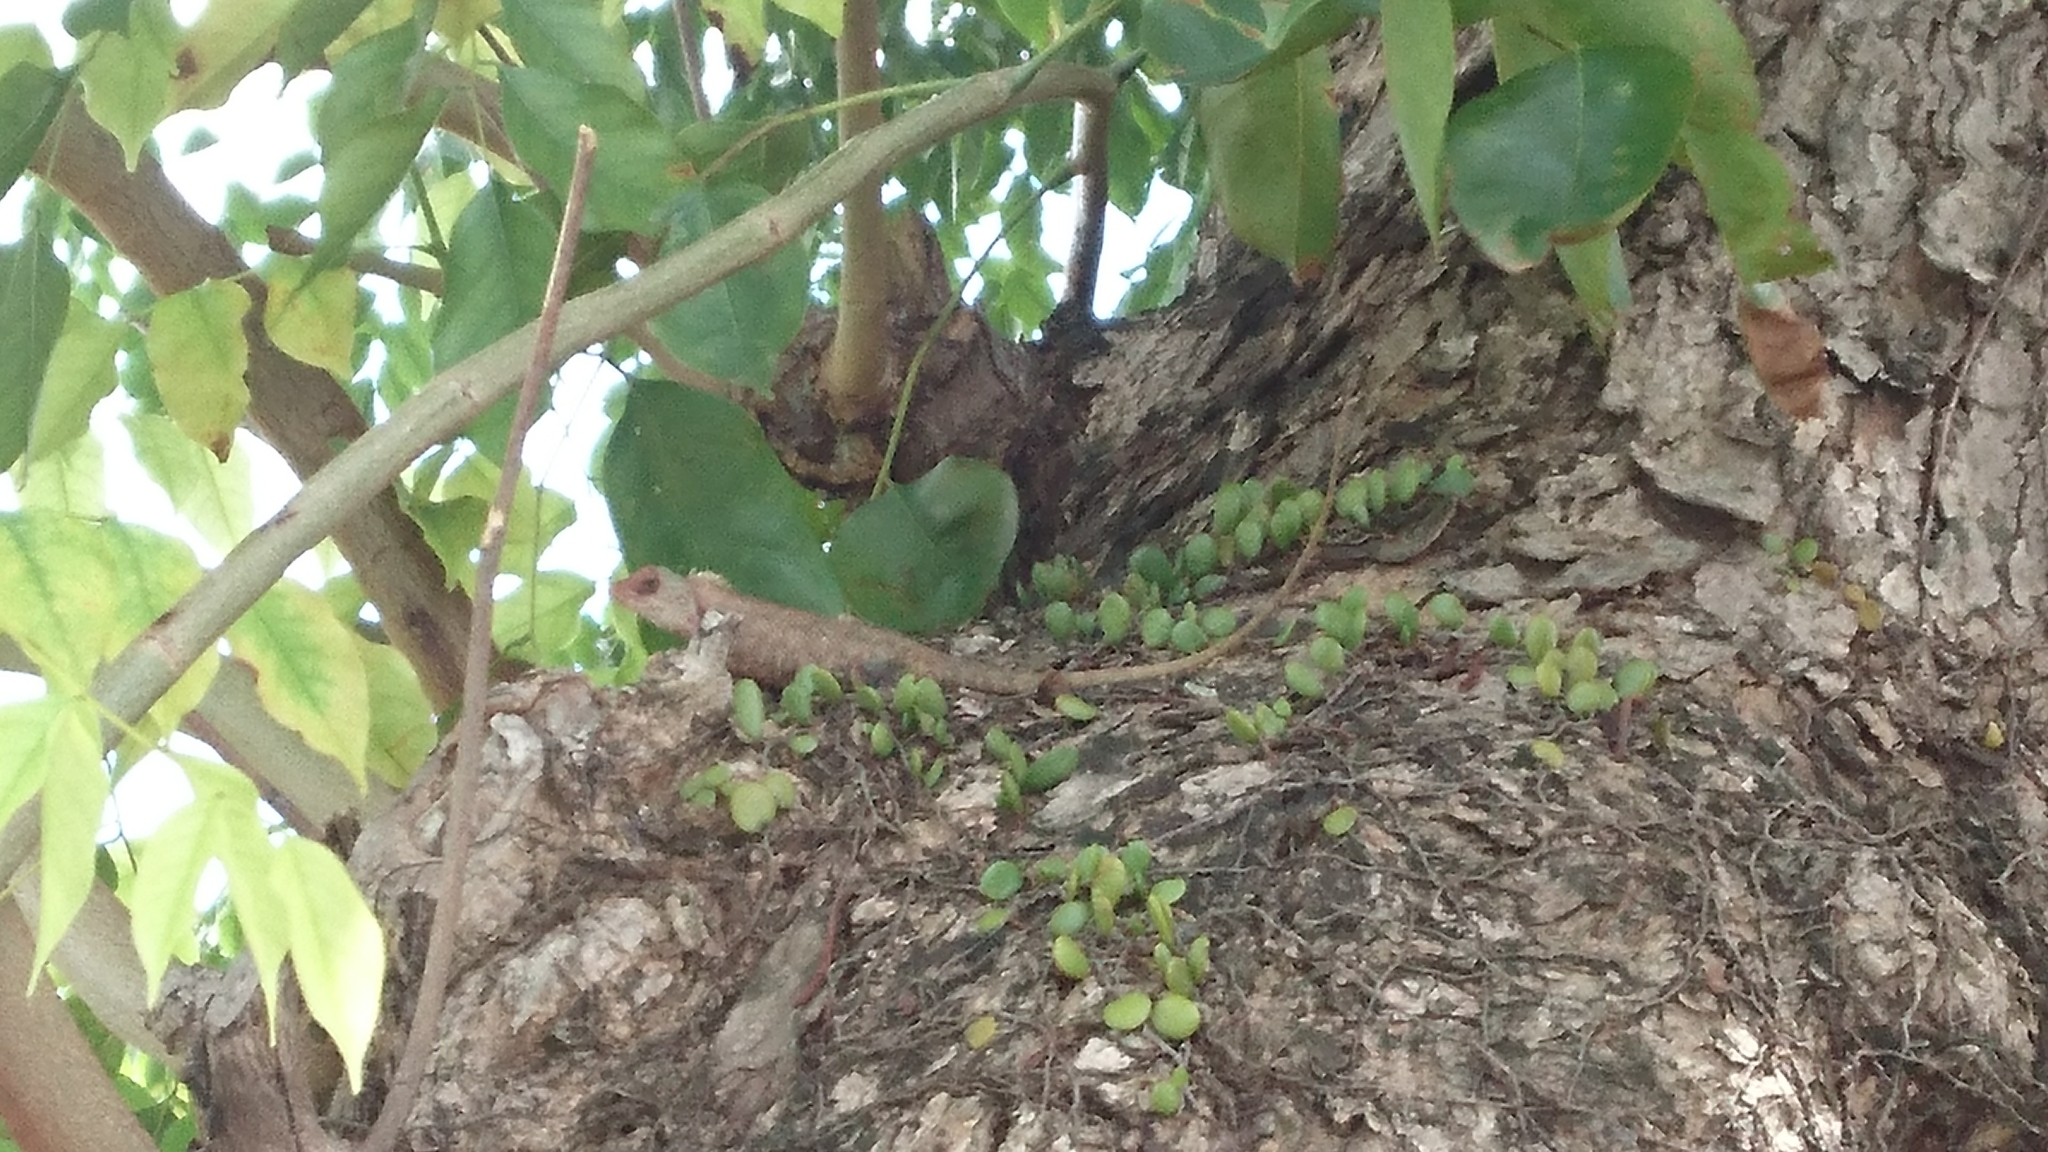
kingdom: Animalia
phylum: Chordata
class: Squamata
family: Agamidae
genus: Calotes
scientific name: Calotes versicolor
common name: Oriental garden lizard
